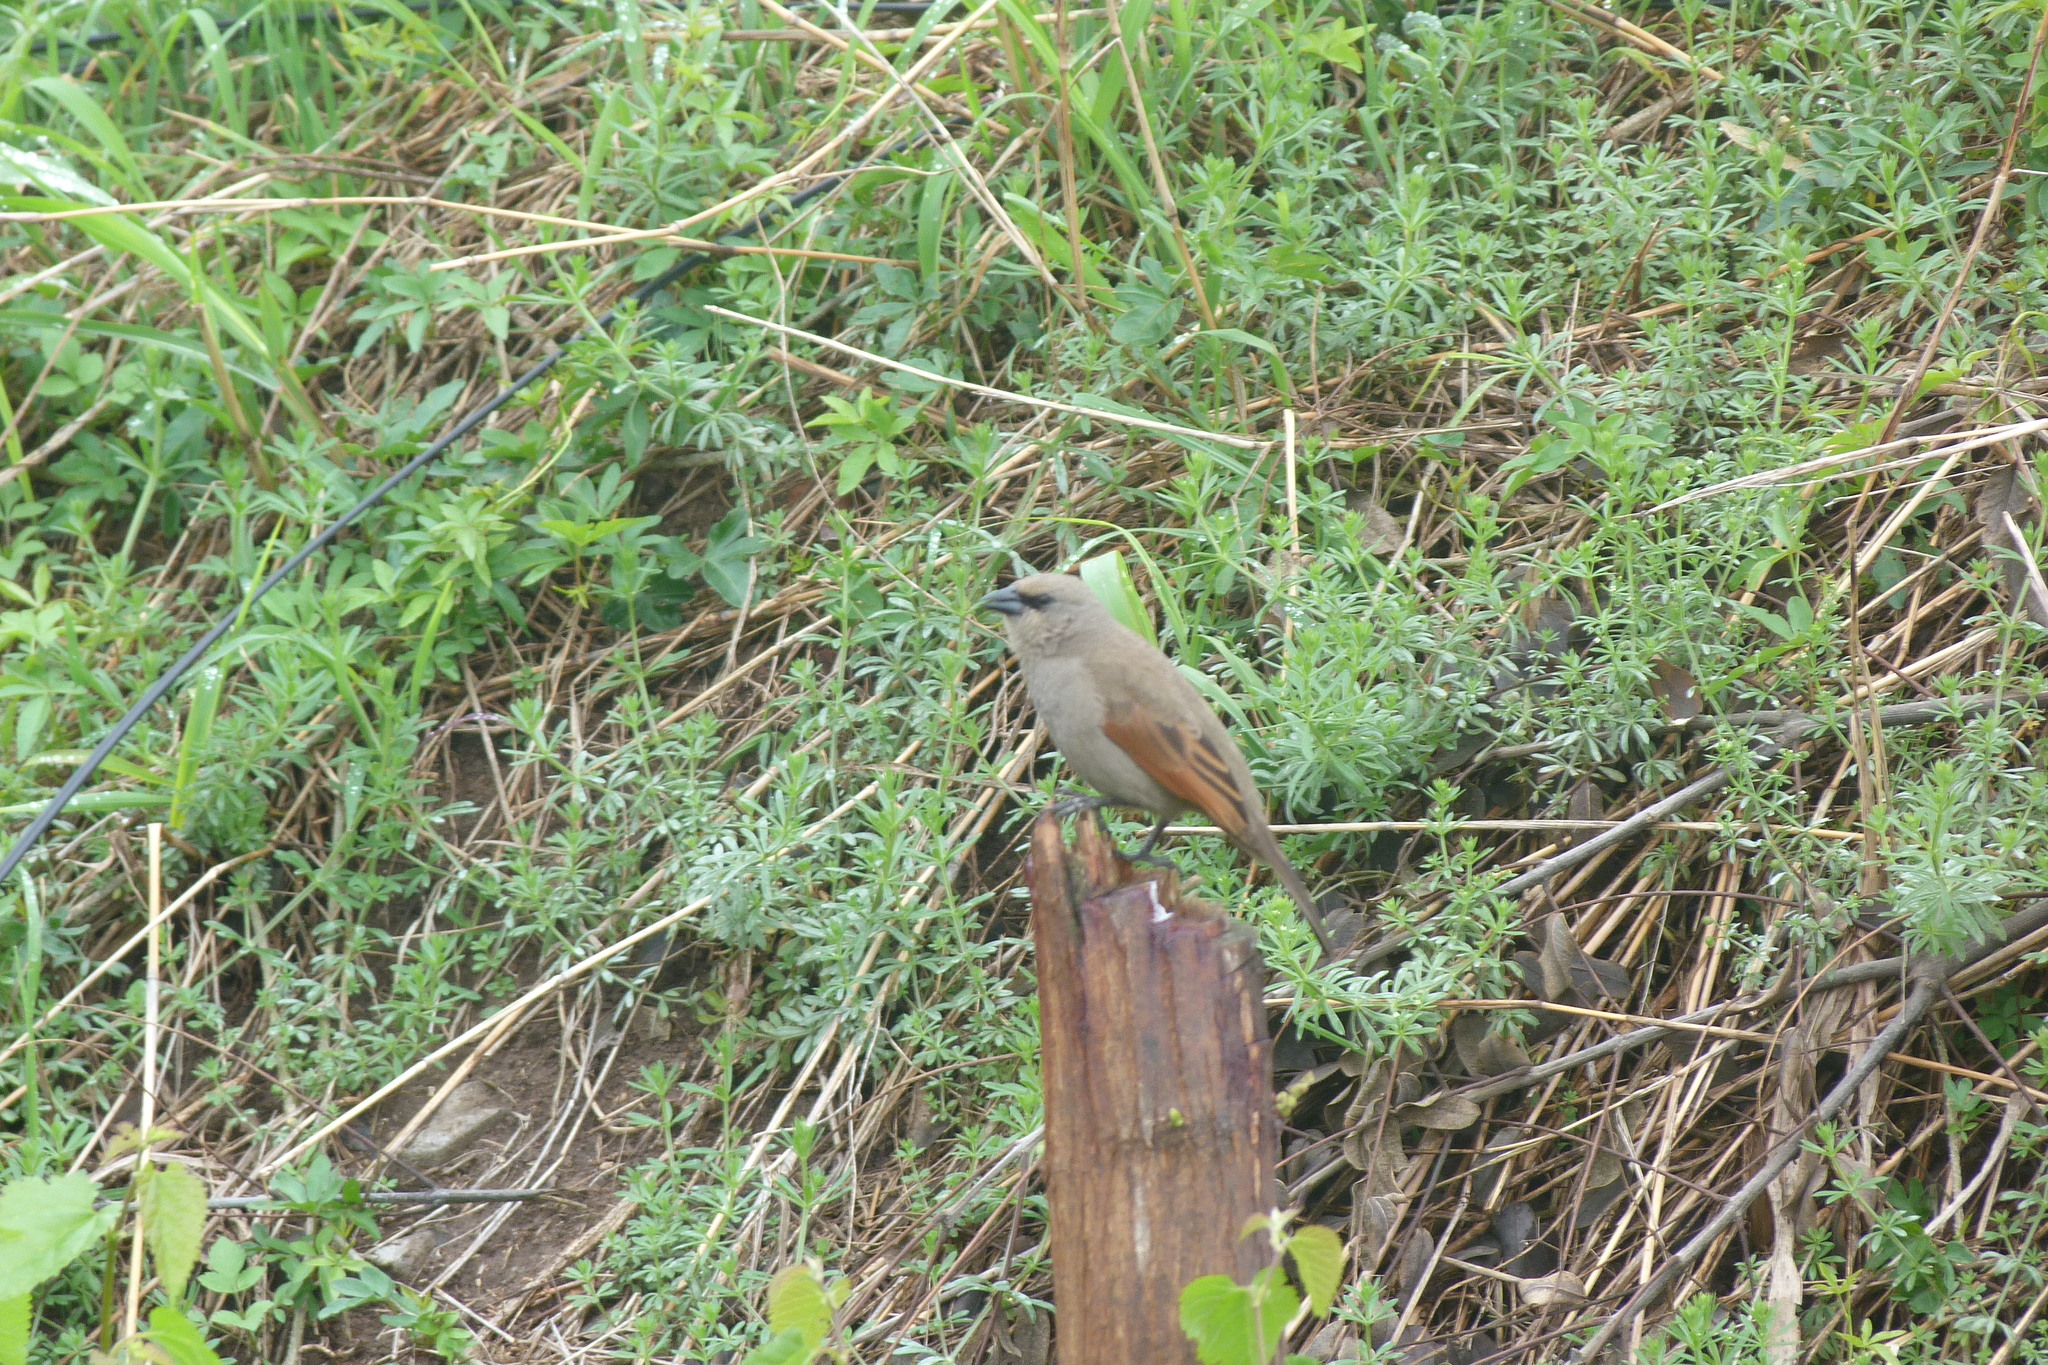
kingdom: Animalia
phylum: Chordata
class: Aves
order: Passeriformes
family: Icteridae
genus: Agelaioides
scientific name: Agelaioides badius
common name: Baywing
